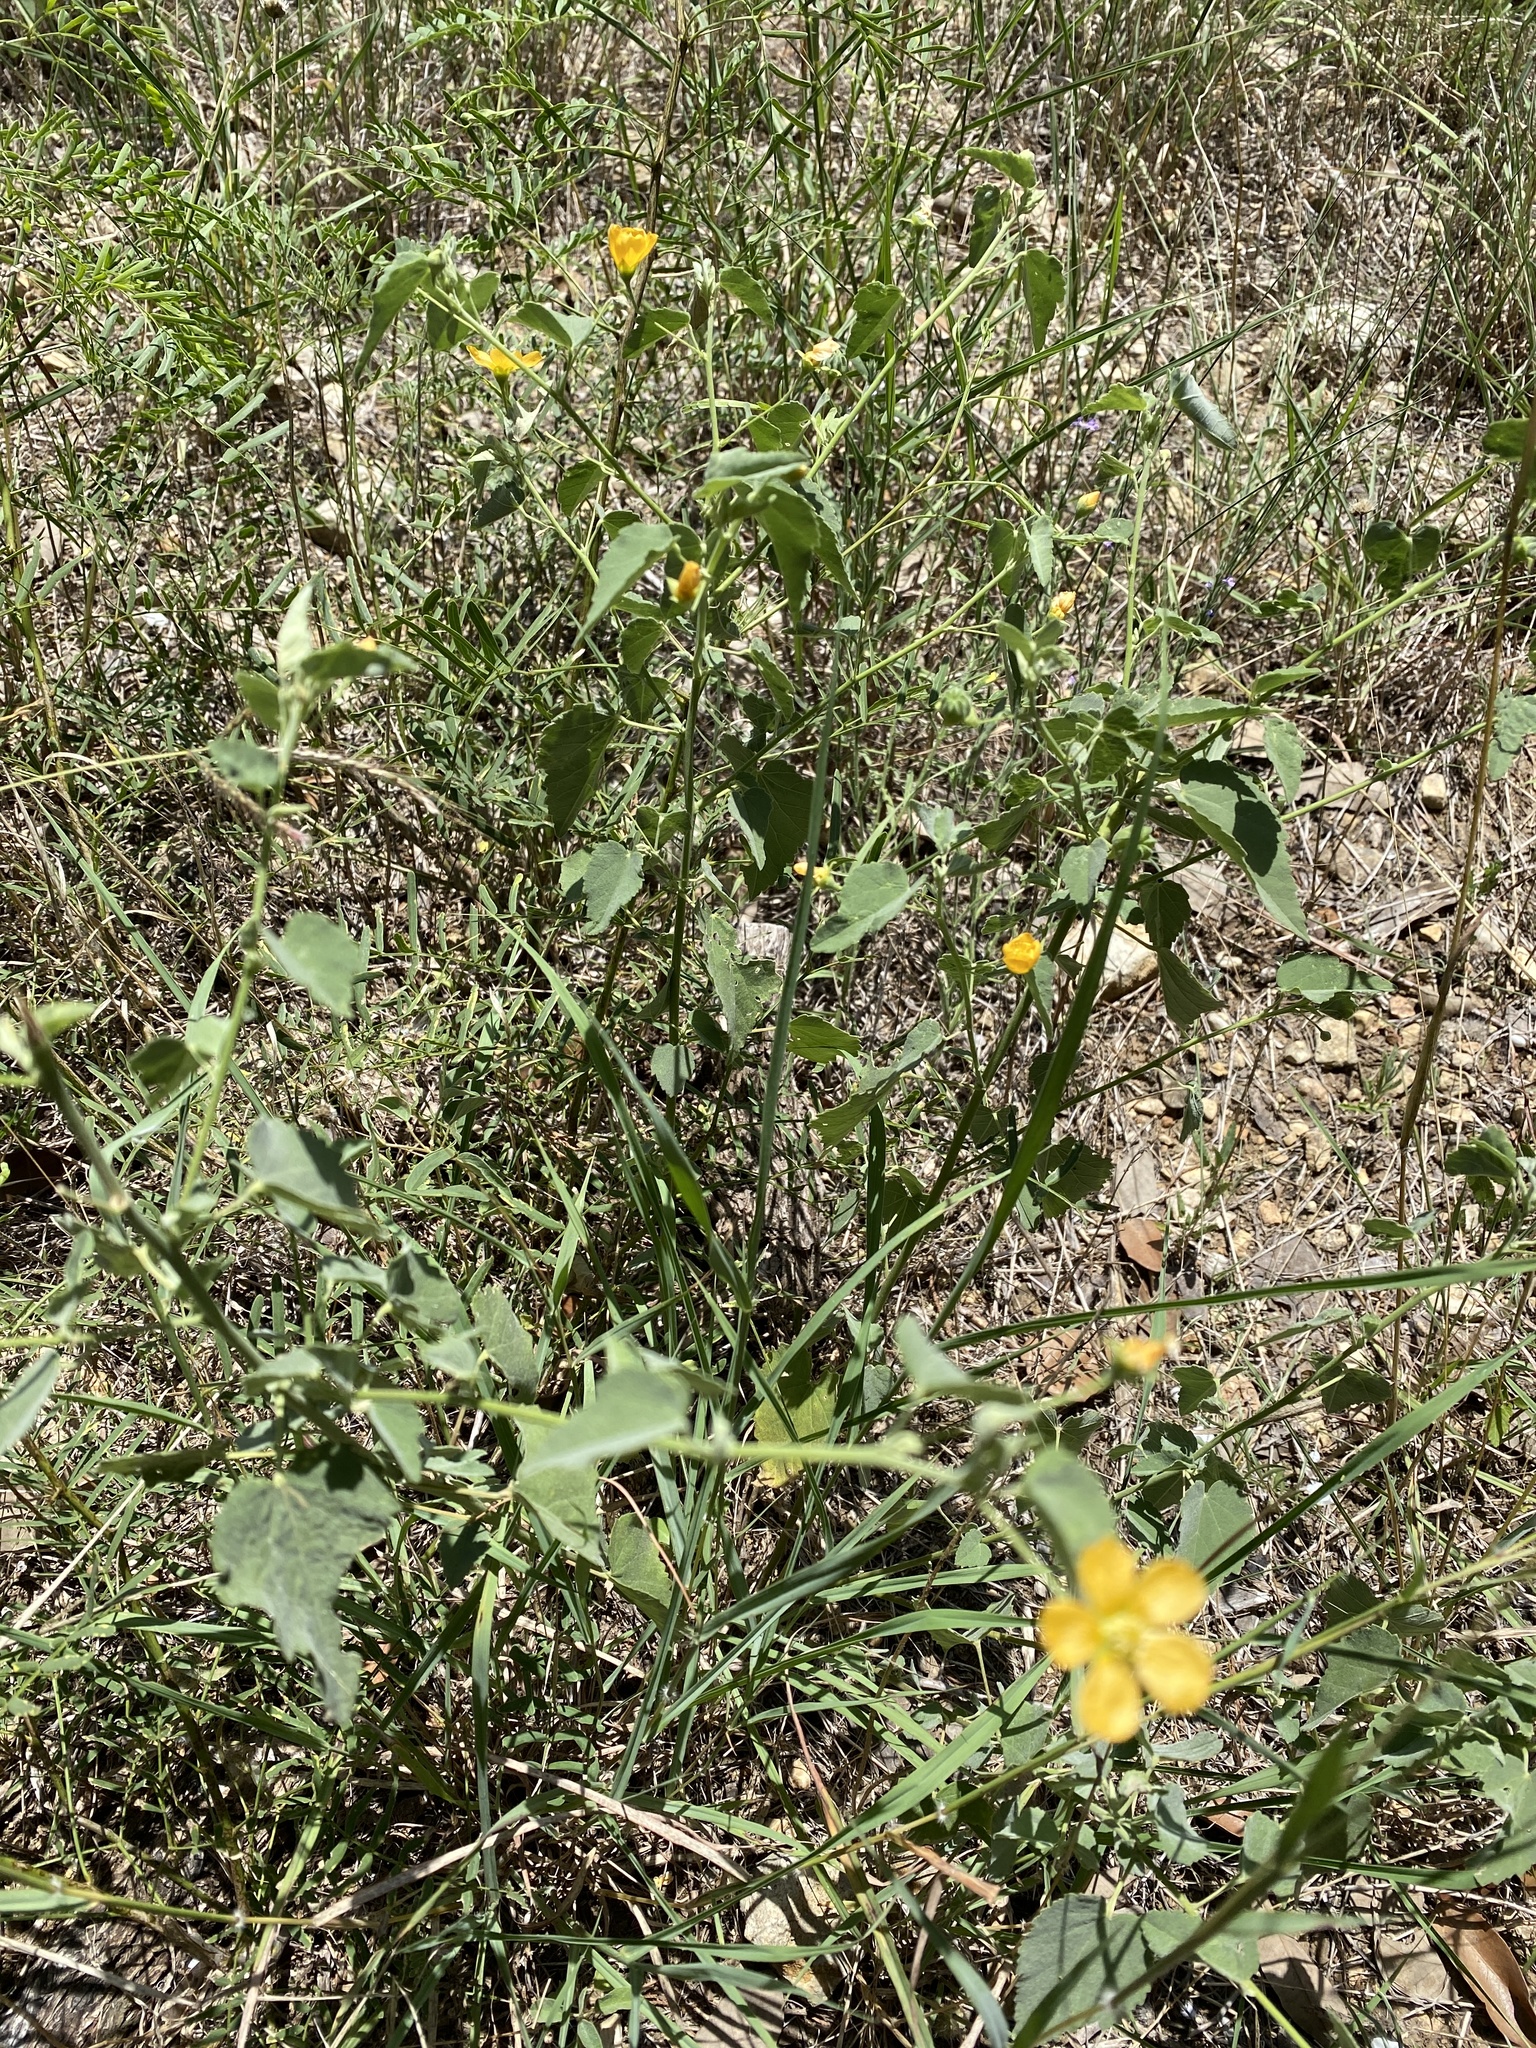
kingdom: Plantae
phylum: Tracheophyta
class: Magnoliopsida
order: Malvales
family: Malvaceae
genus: Abutilon
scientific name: Abutilon fruticosum
